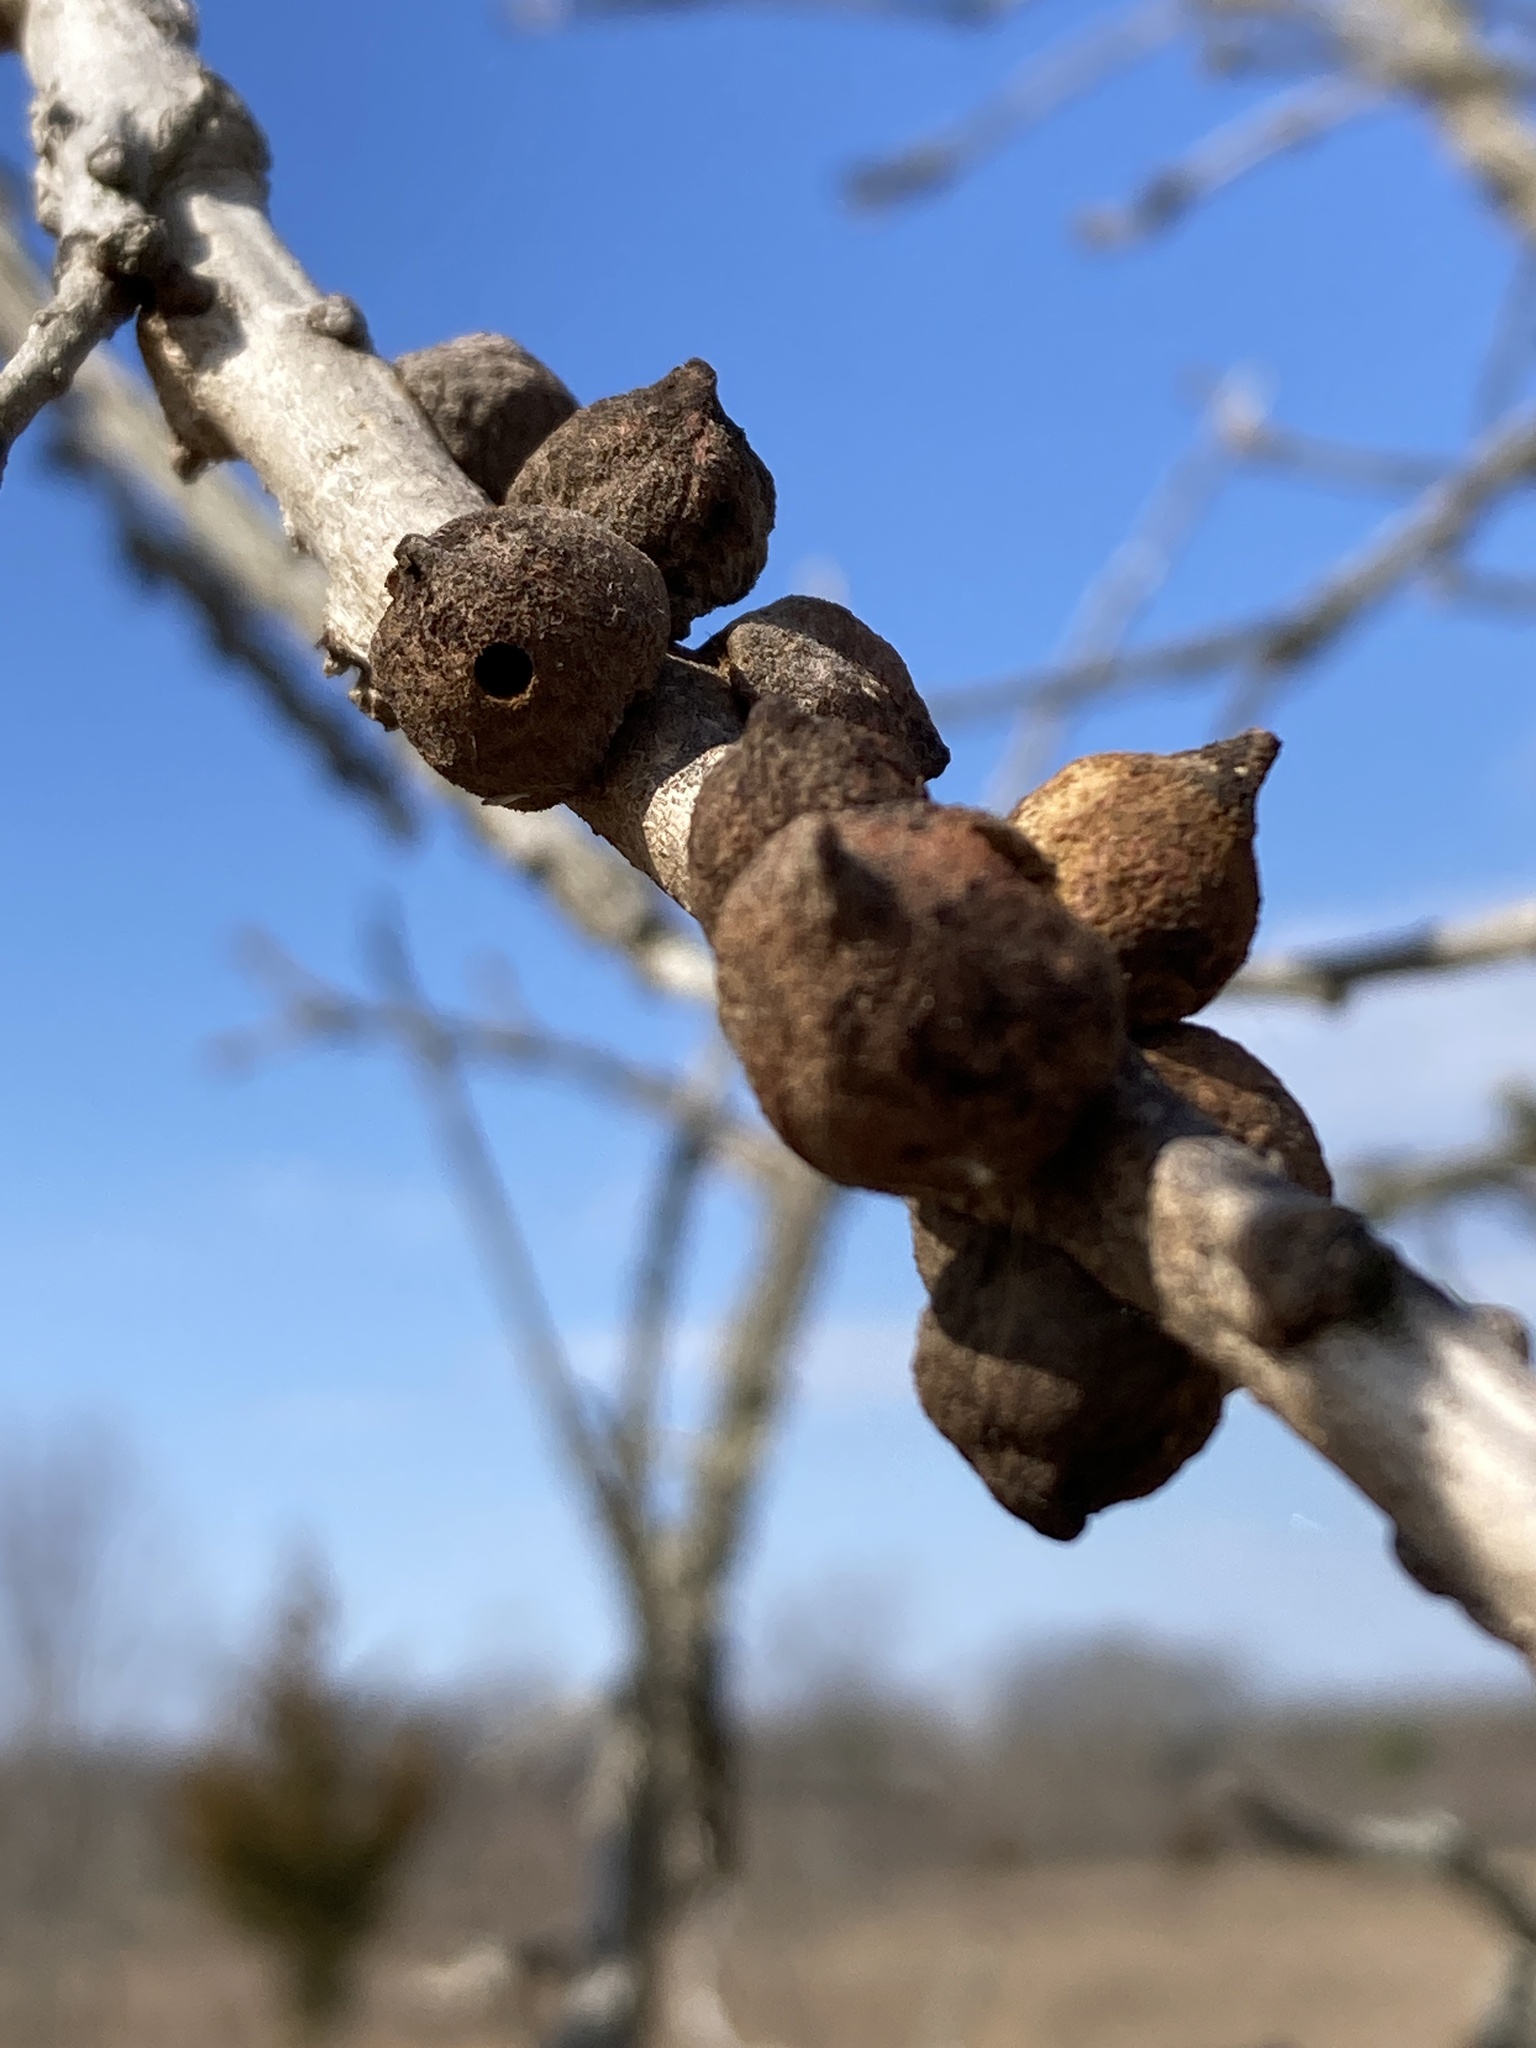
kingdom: Animalia
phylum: Arthropoda
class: Insecta
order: Hymenoptera
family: Cynipidae
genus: Disholcaspis
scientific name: Disholcaspis
